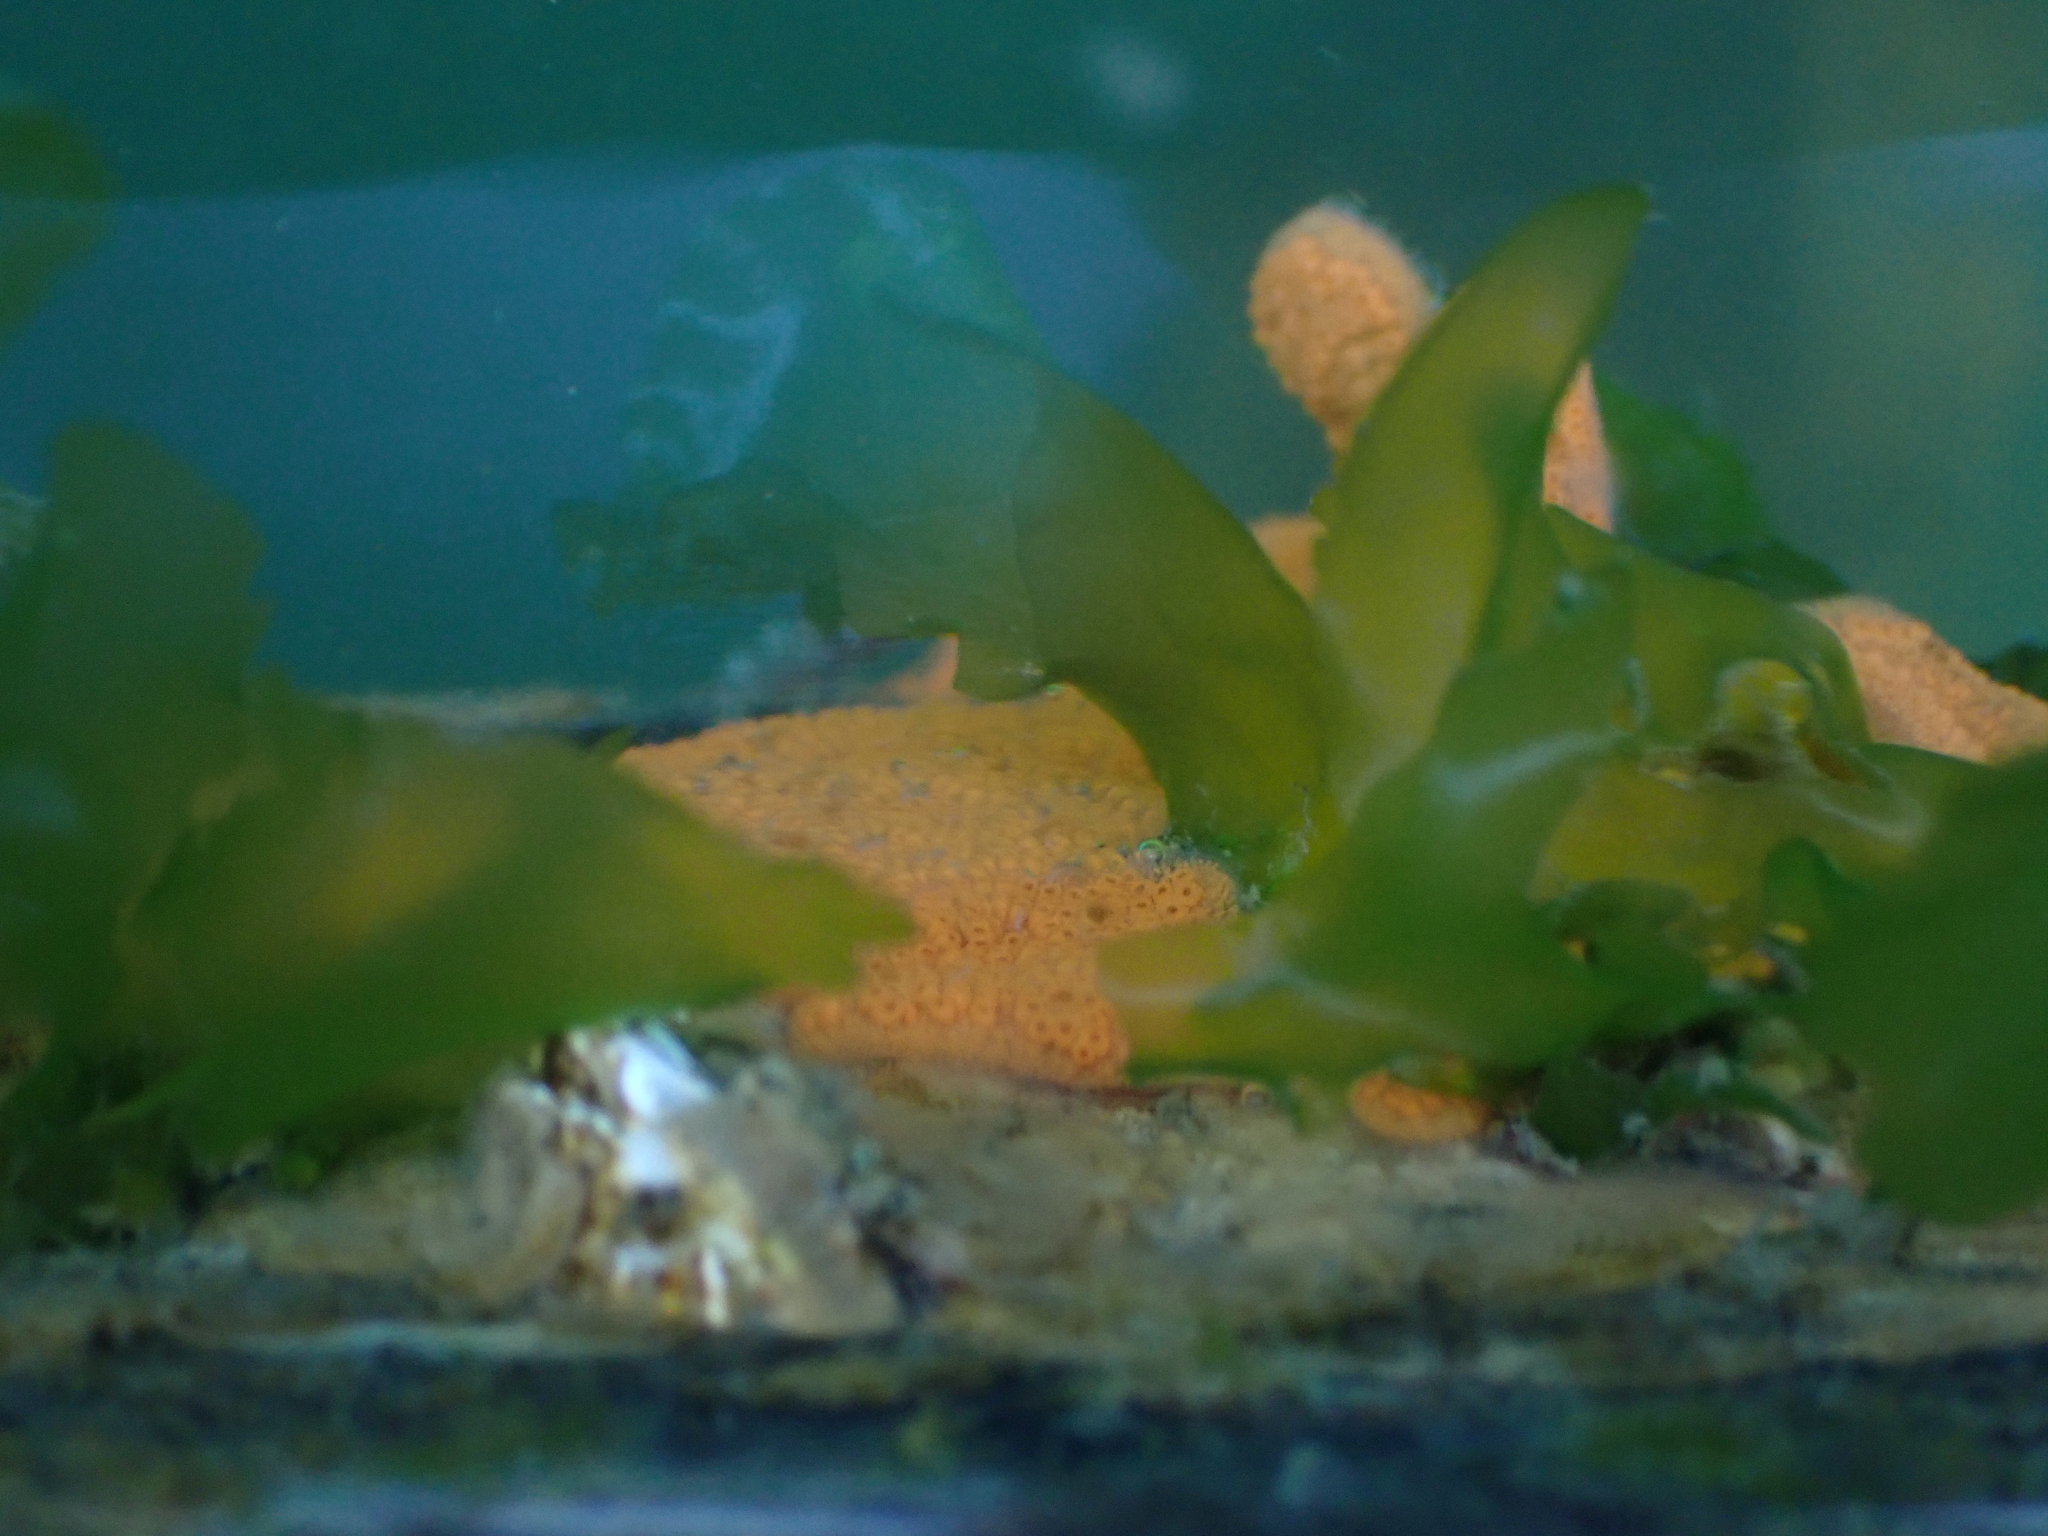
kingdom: Animalia
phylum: Chordata
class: Ascidiacea
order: Stolidobranchia
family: Styelidae
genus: Botrylloides
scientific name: Botrylloides violaceus
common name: Colonial sea squirt
